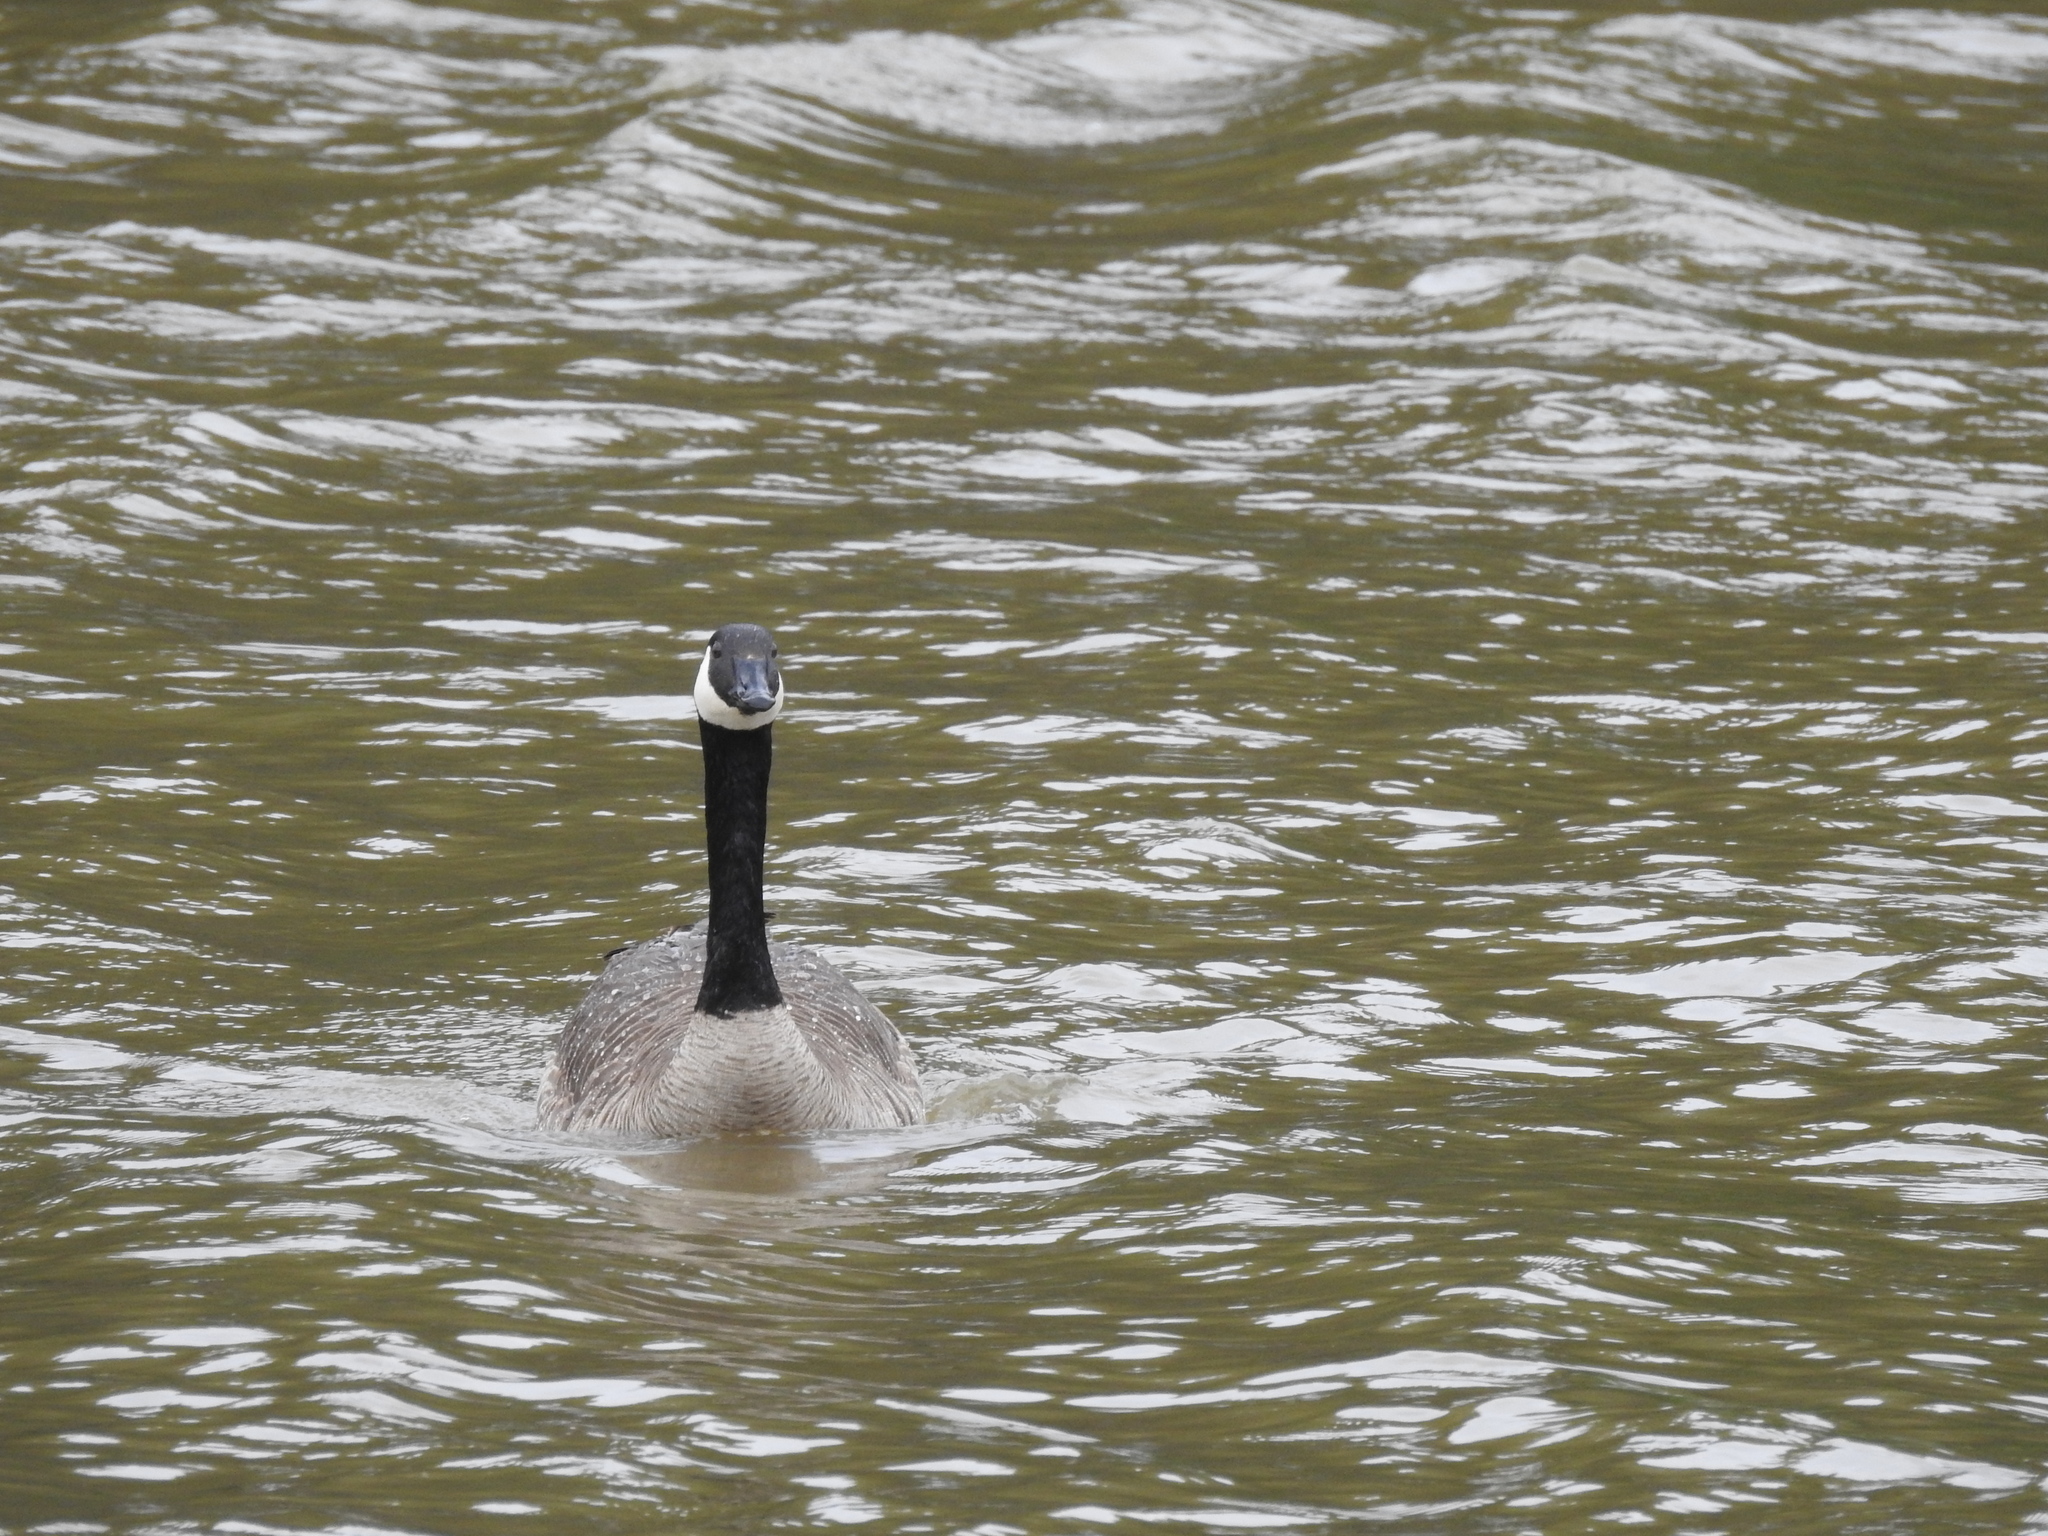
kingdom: Animalia
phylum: Chordata
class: Aves
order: Anseriformes
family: Anatidae
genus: Branta
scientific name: Branta canadensis
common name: Canada goose
